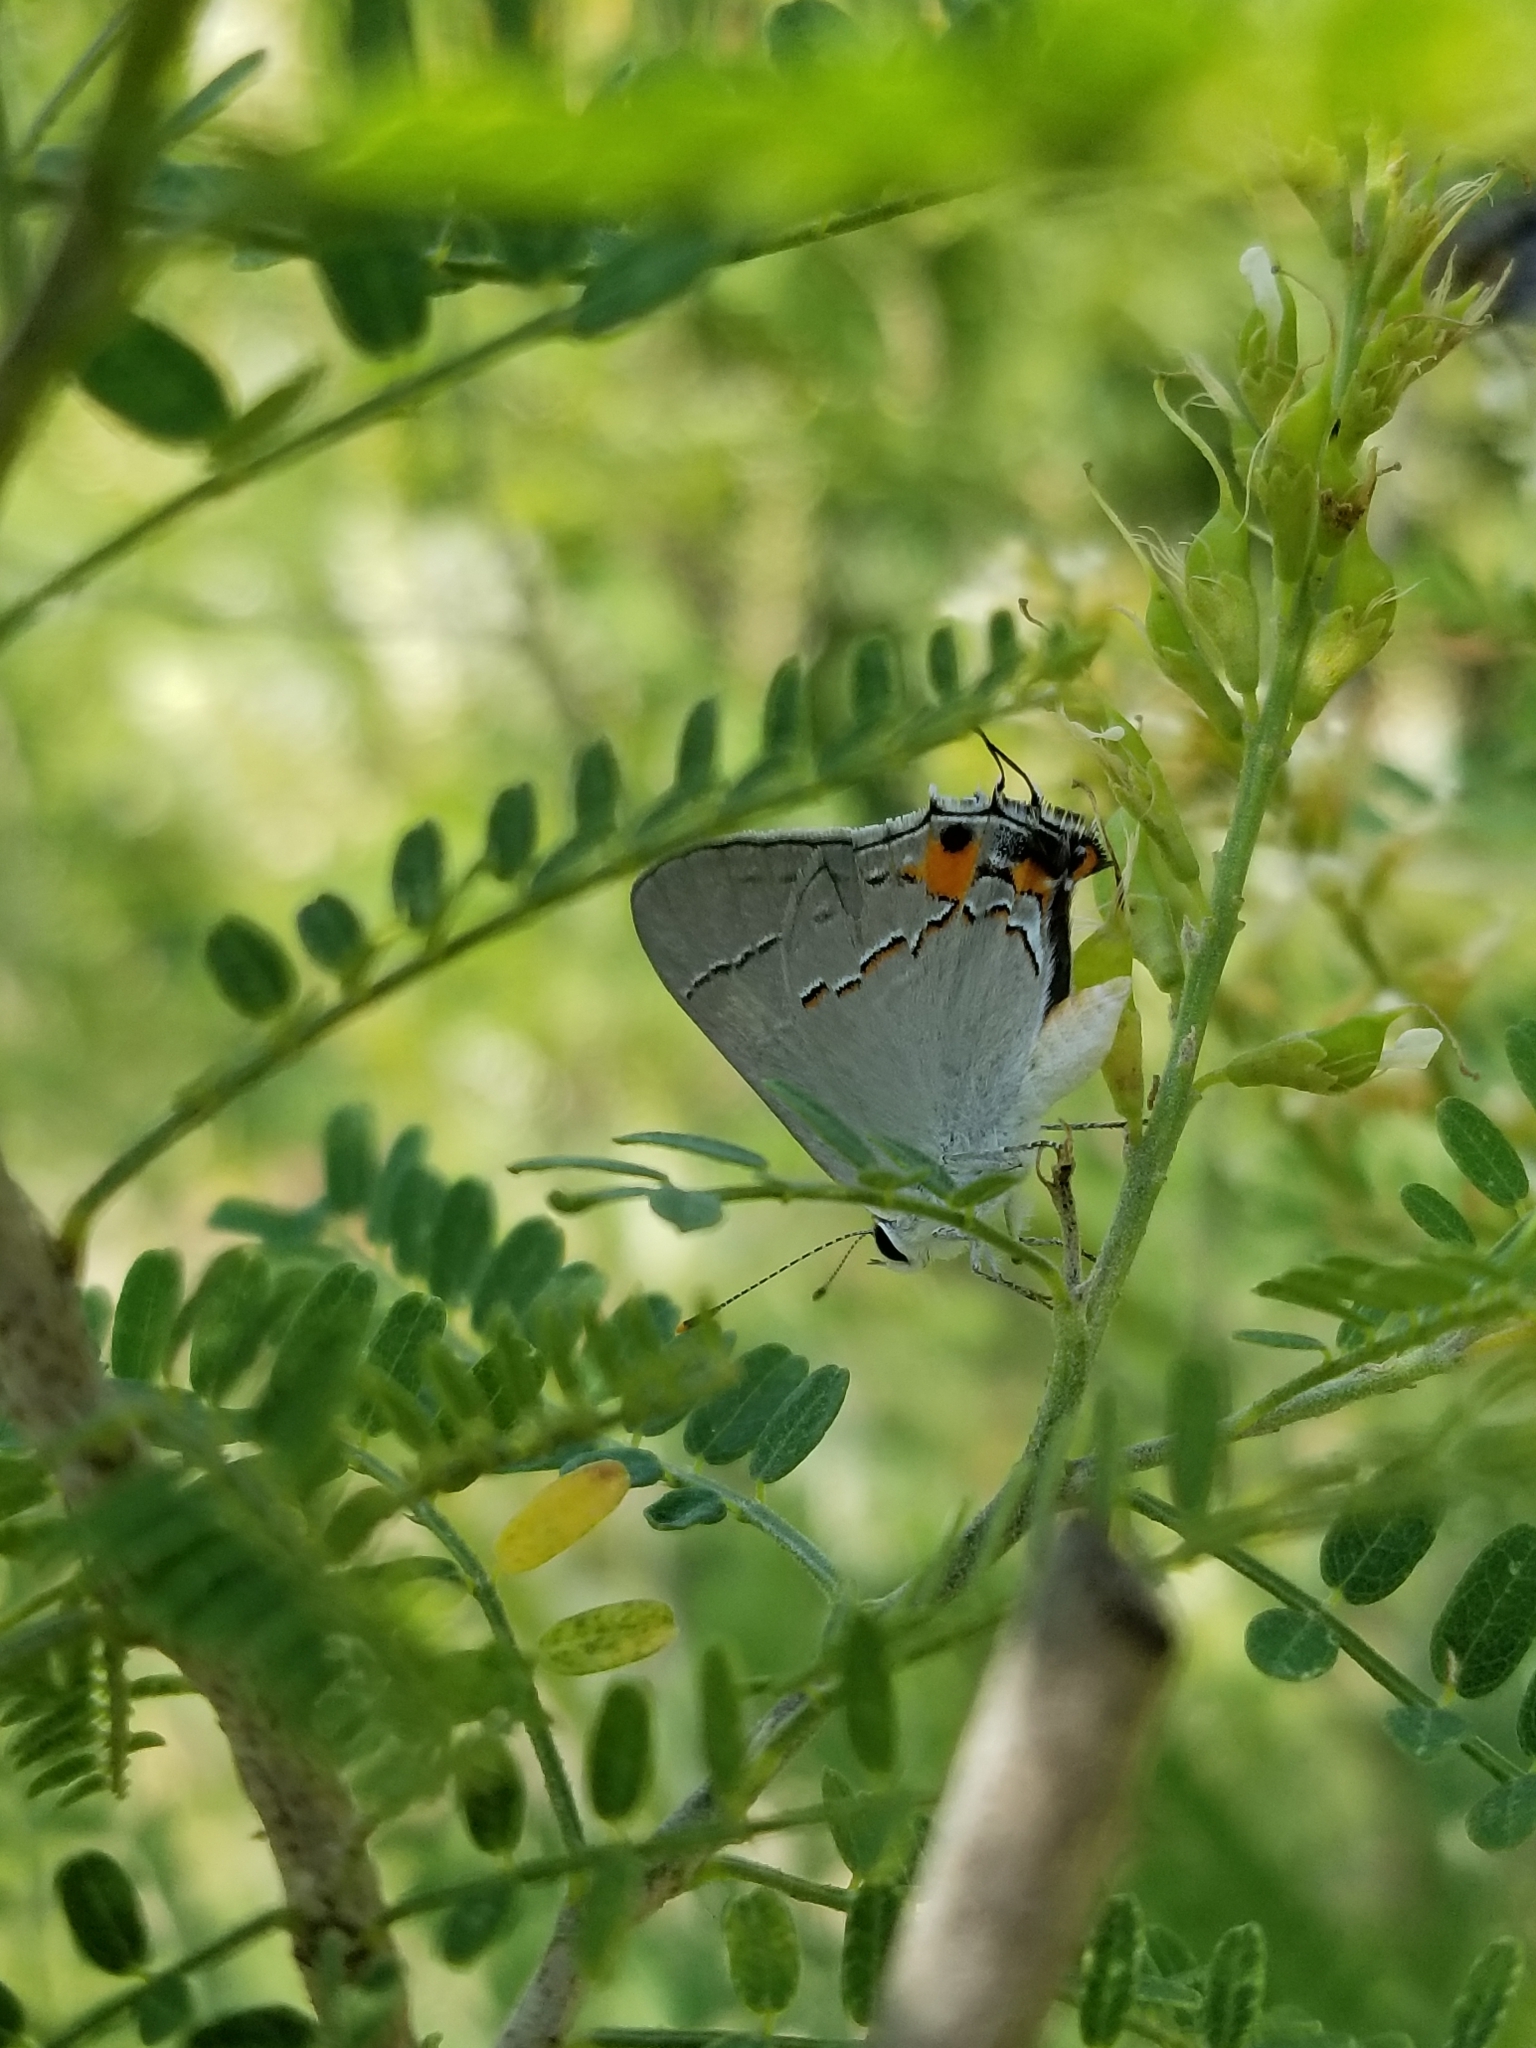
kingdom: Animalia
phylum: Arthropoda
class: Insecta
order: Lepidoptera
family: Lycaenidae
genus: Strymon
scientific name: Strymon melinus
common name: Gray hairstreak
